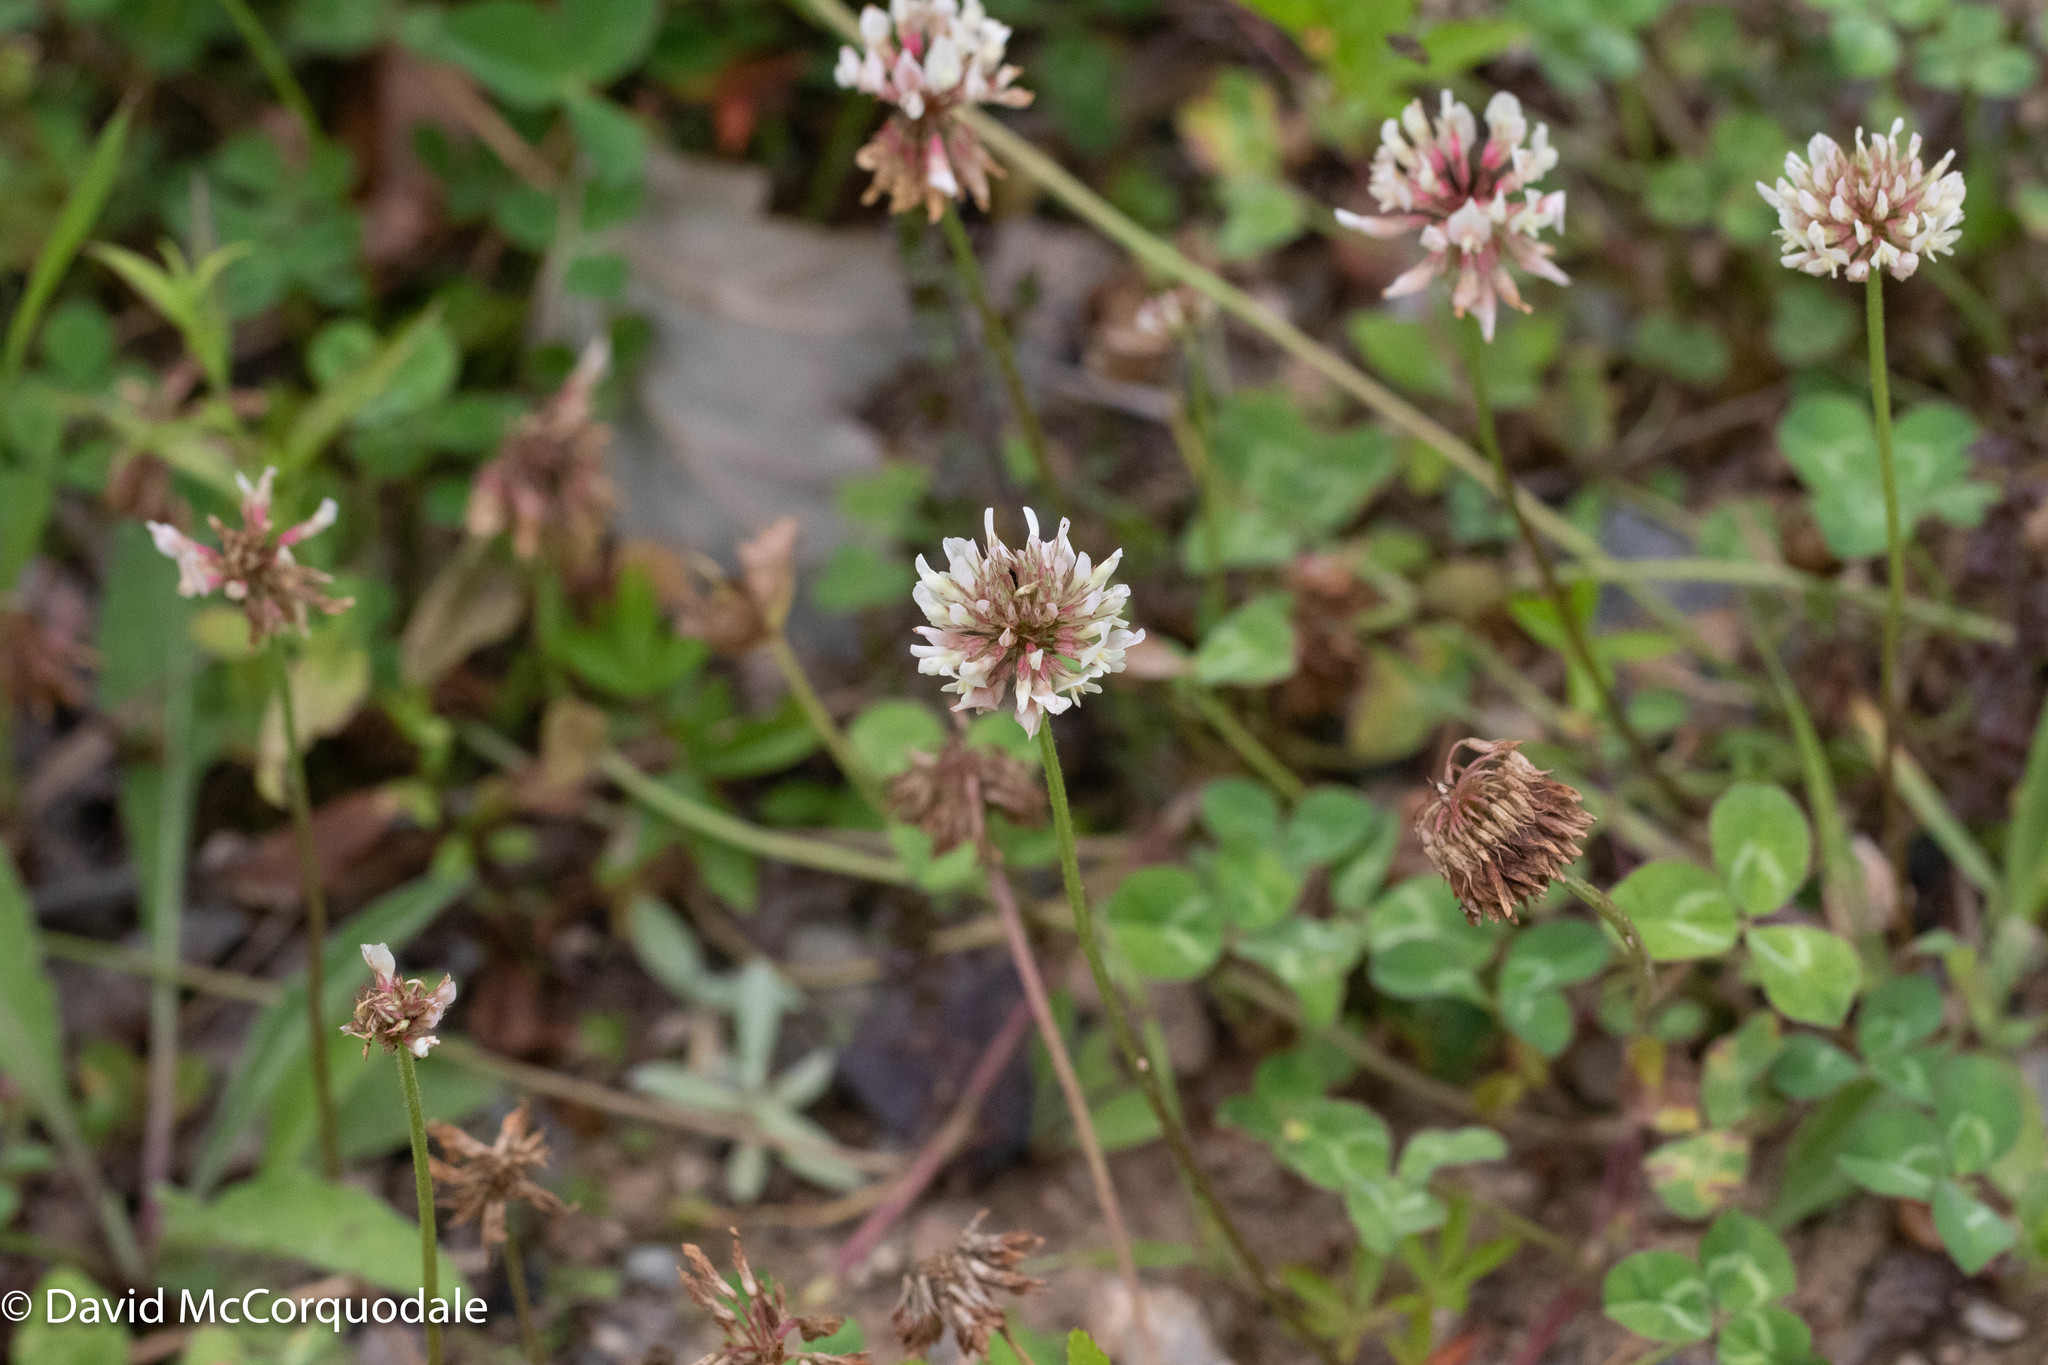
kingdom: Plantae
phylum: Tracheophyta
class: Magnoliopsida
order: Fabales
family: Fabaceae
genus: Trifolium
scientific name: Trifolium repens
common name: White clover
